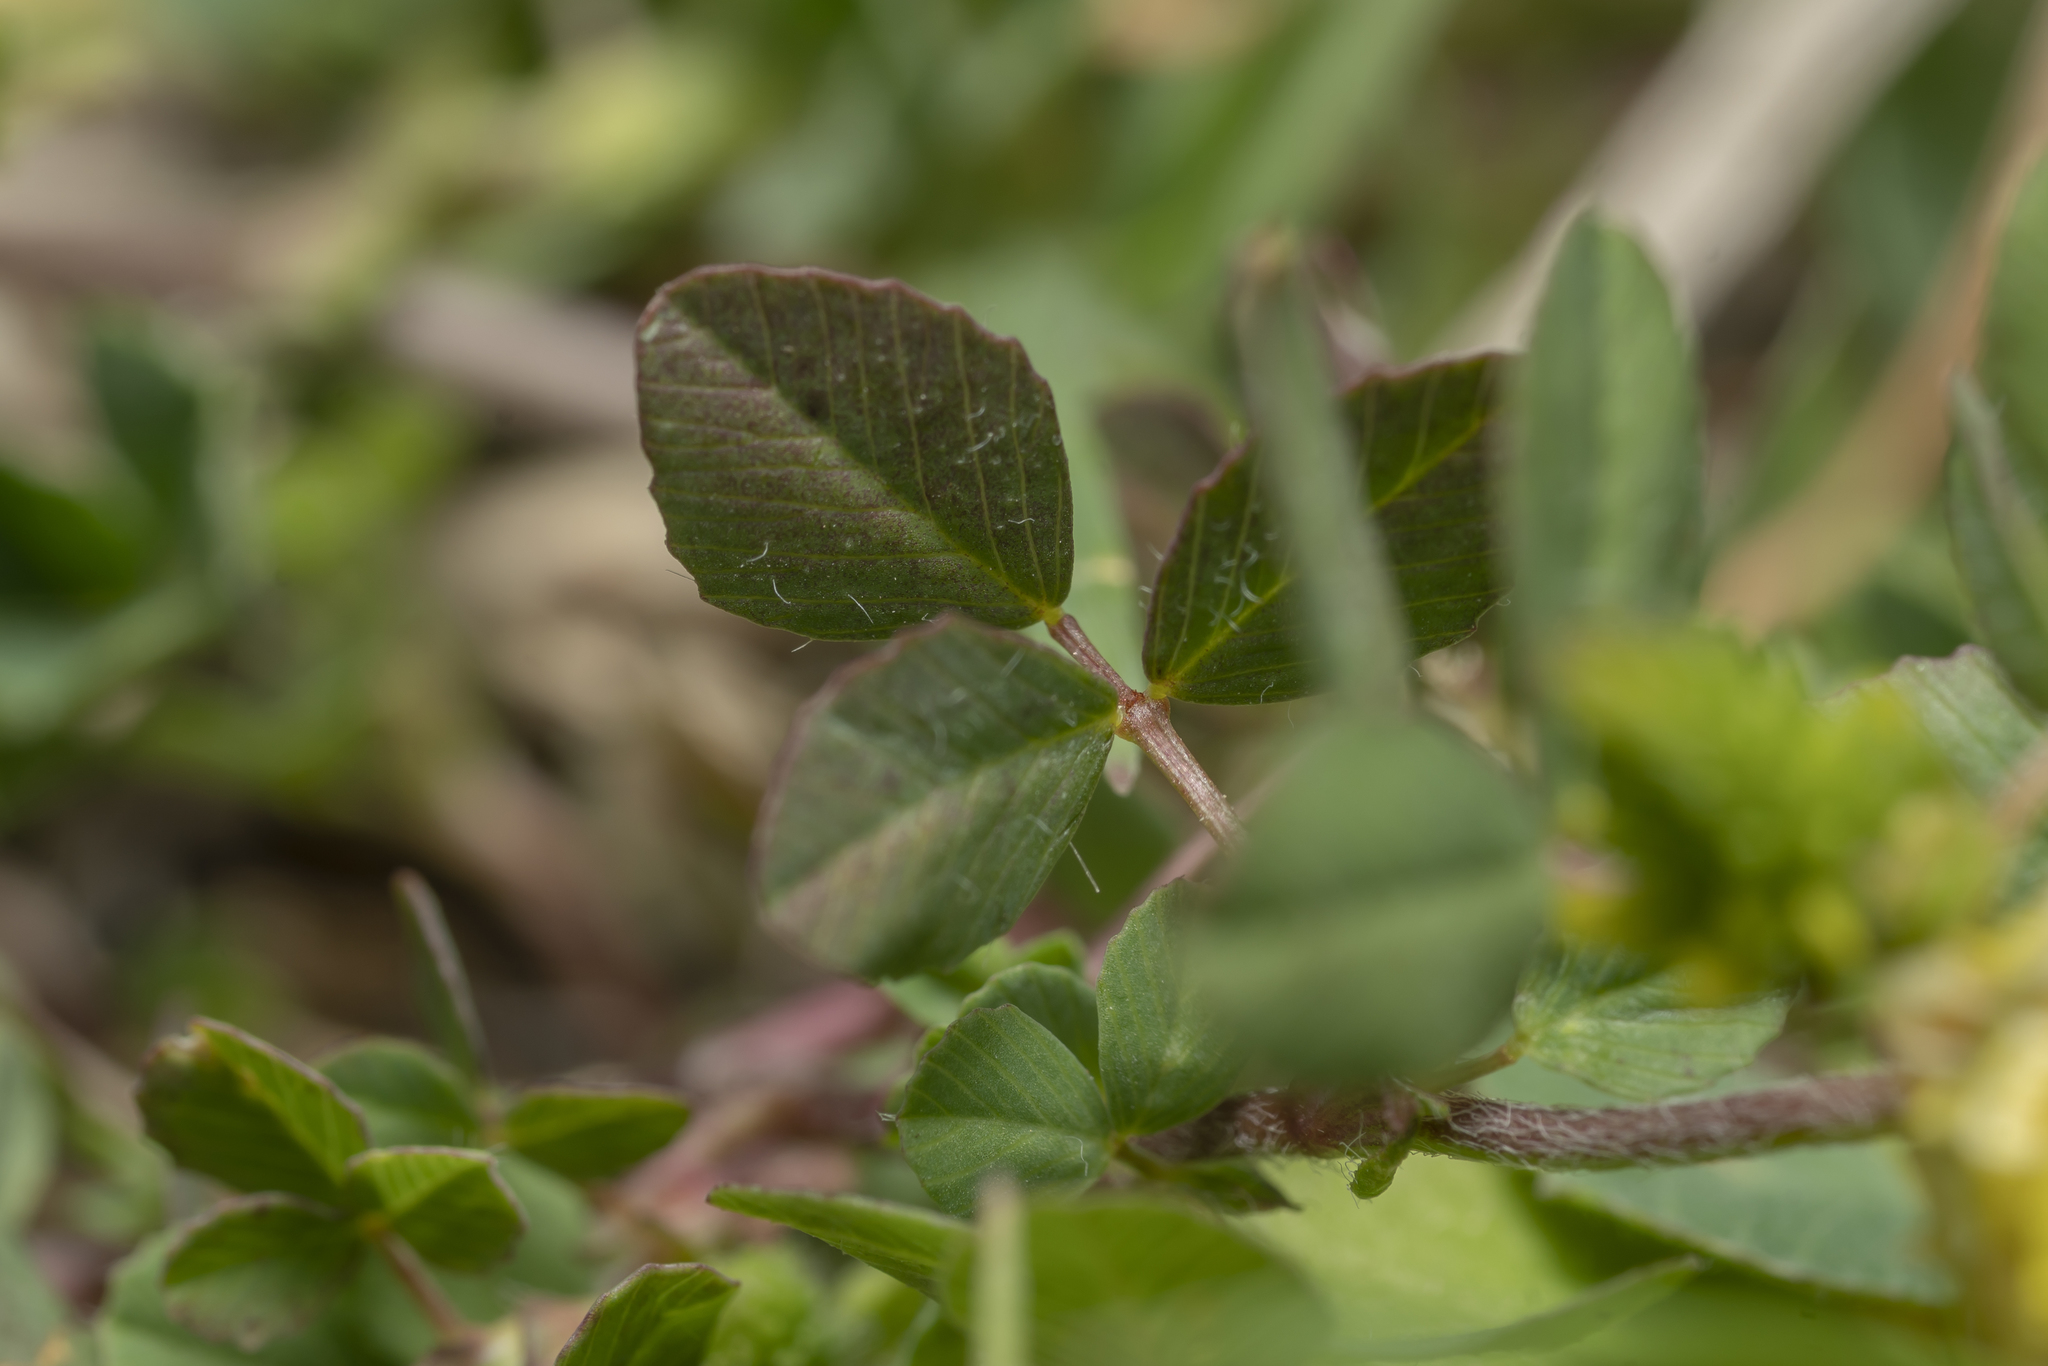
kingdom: Plantae
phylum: Tracheophyta
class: Magnoliopsida
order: Fabales
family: Fabaceae
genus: Trifolium
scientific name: Trifolium campestre
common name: Field clover
